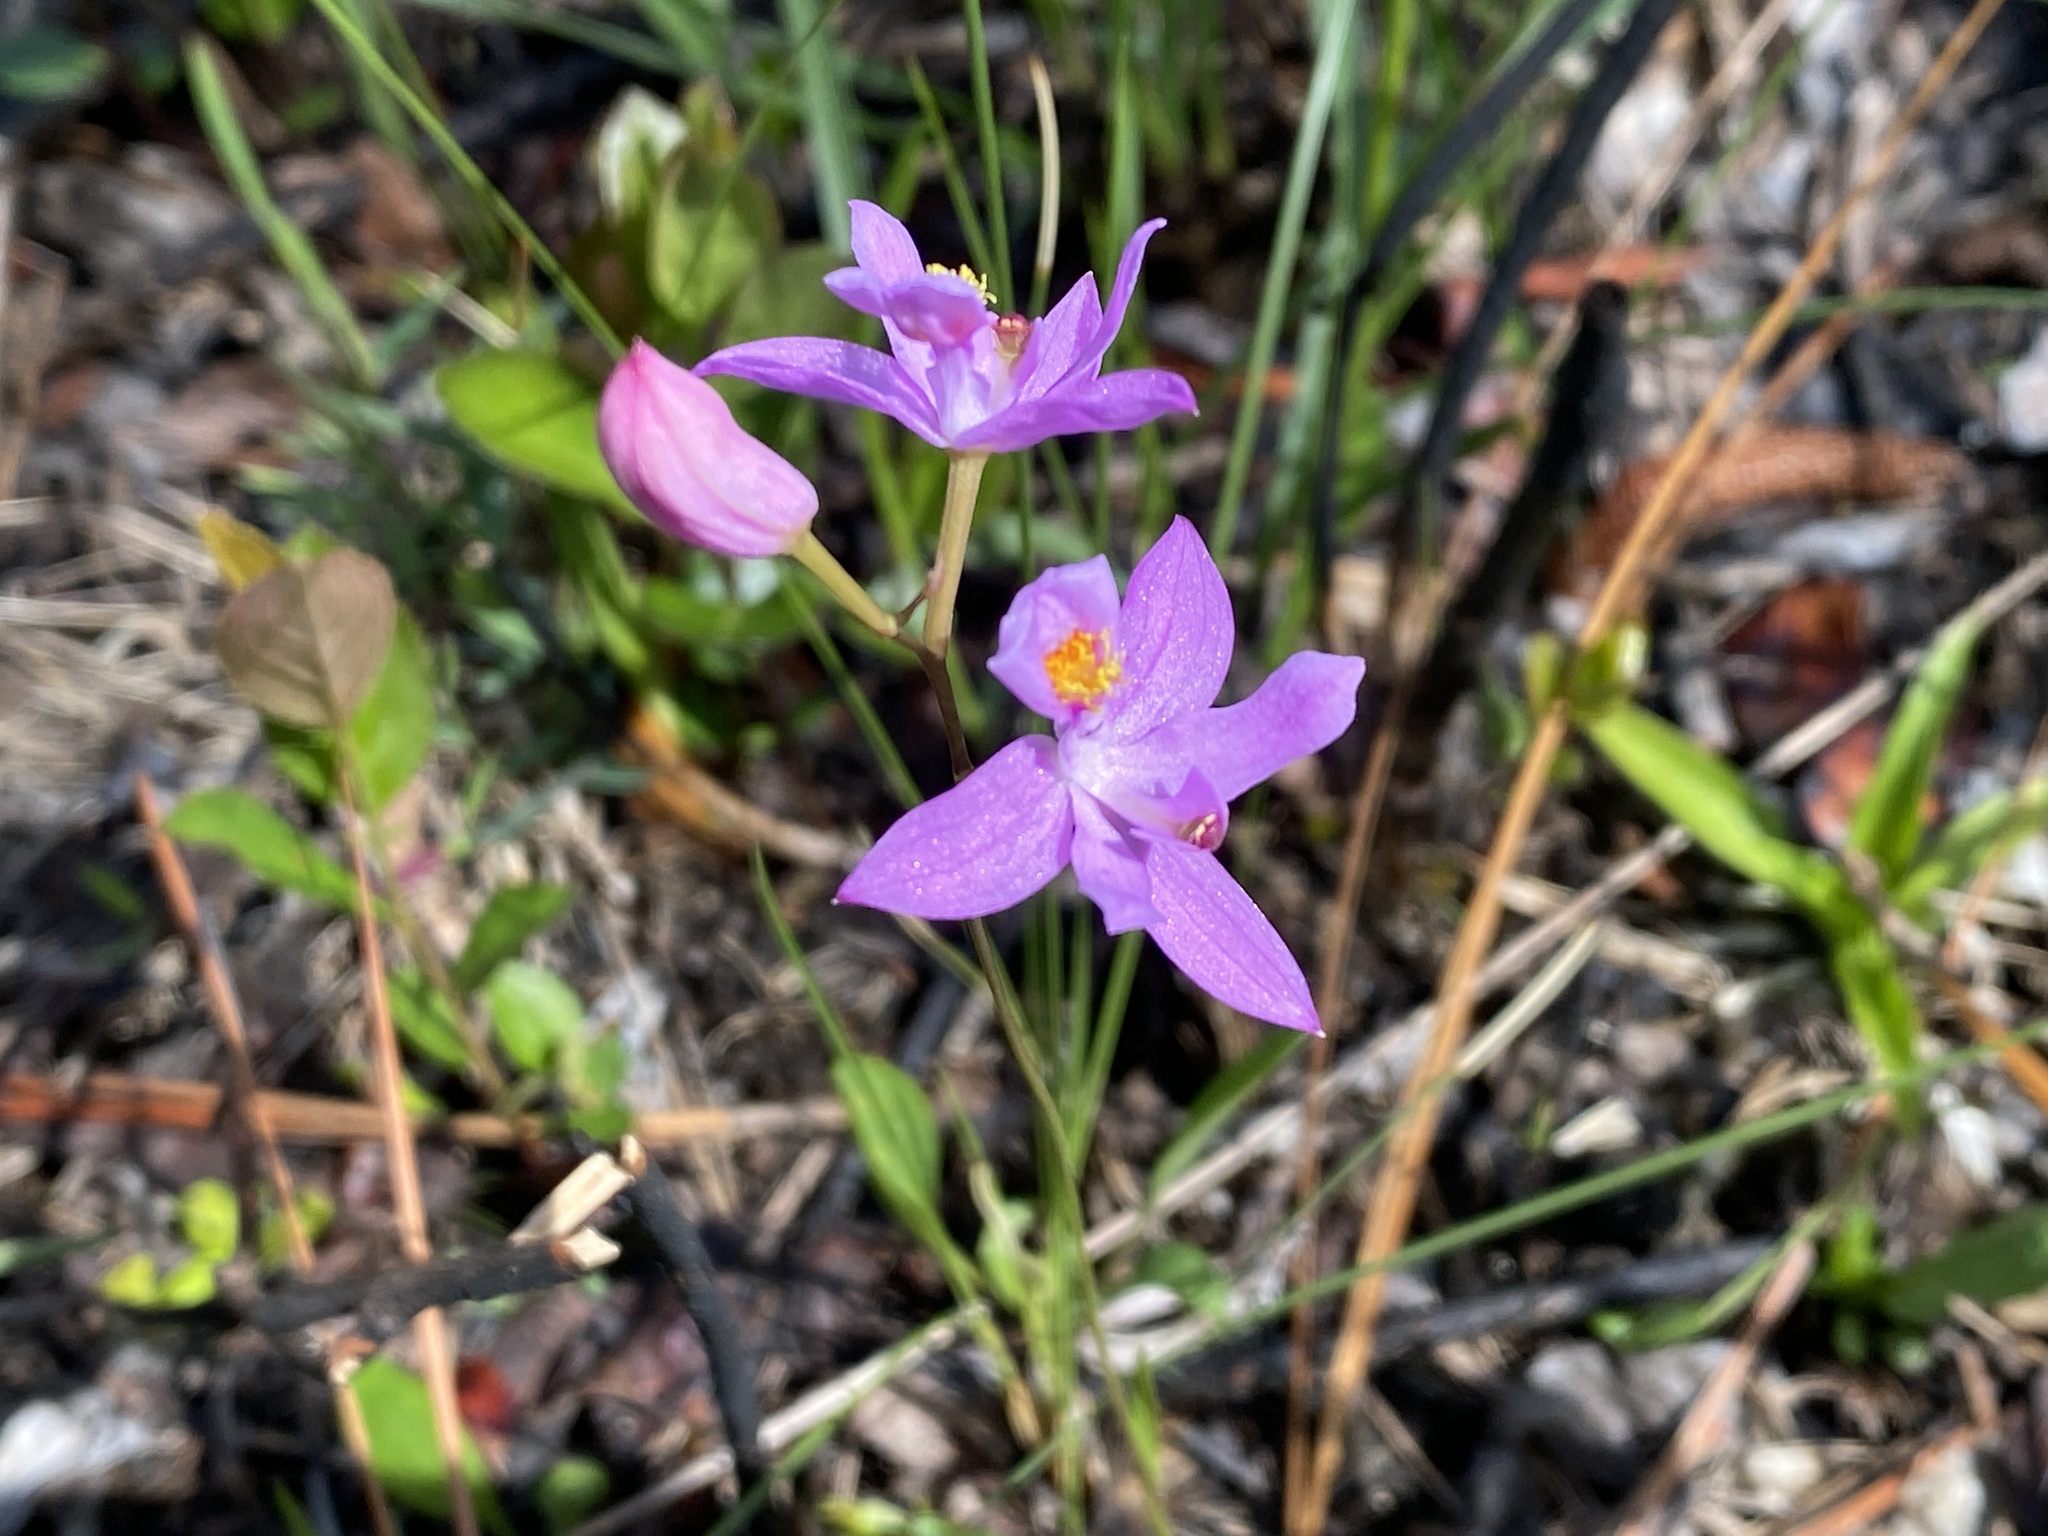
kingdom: Plantae
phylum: Tracheophyta
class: Liliopsida
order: Asparagales
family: Orchidaceae
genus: Calopogon
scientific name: Calopogon barbatus
